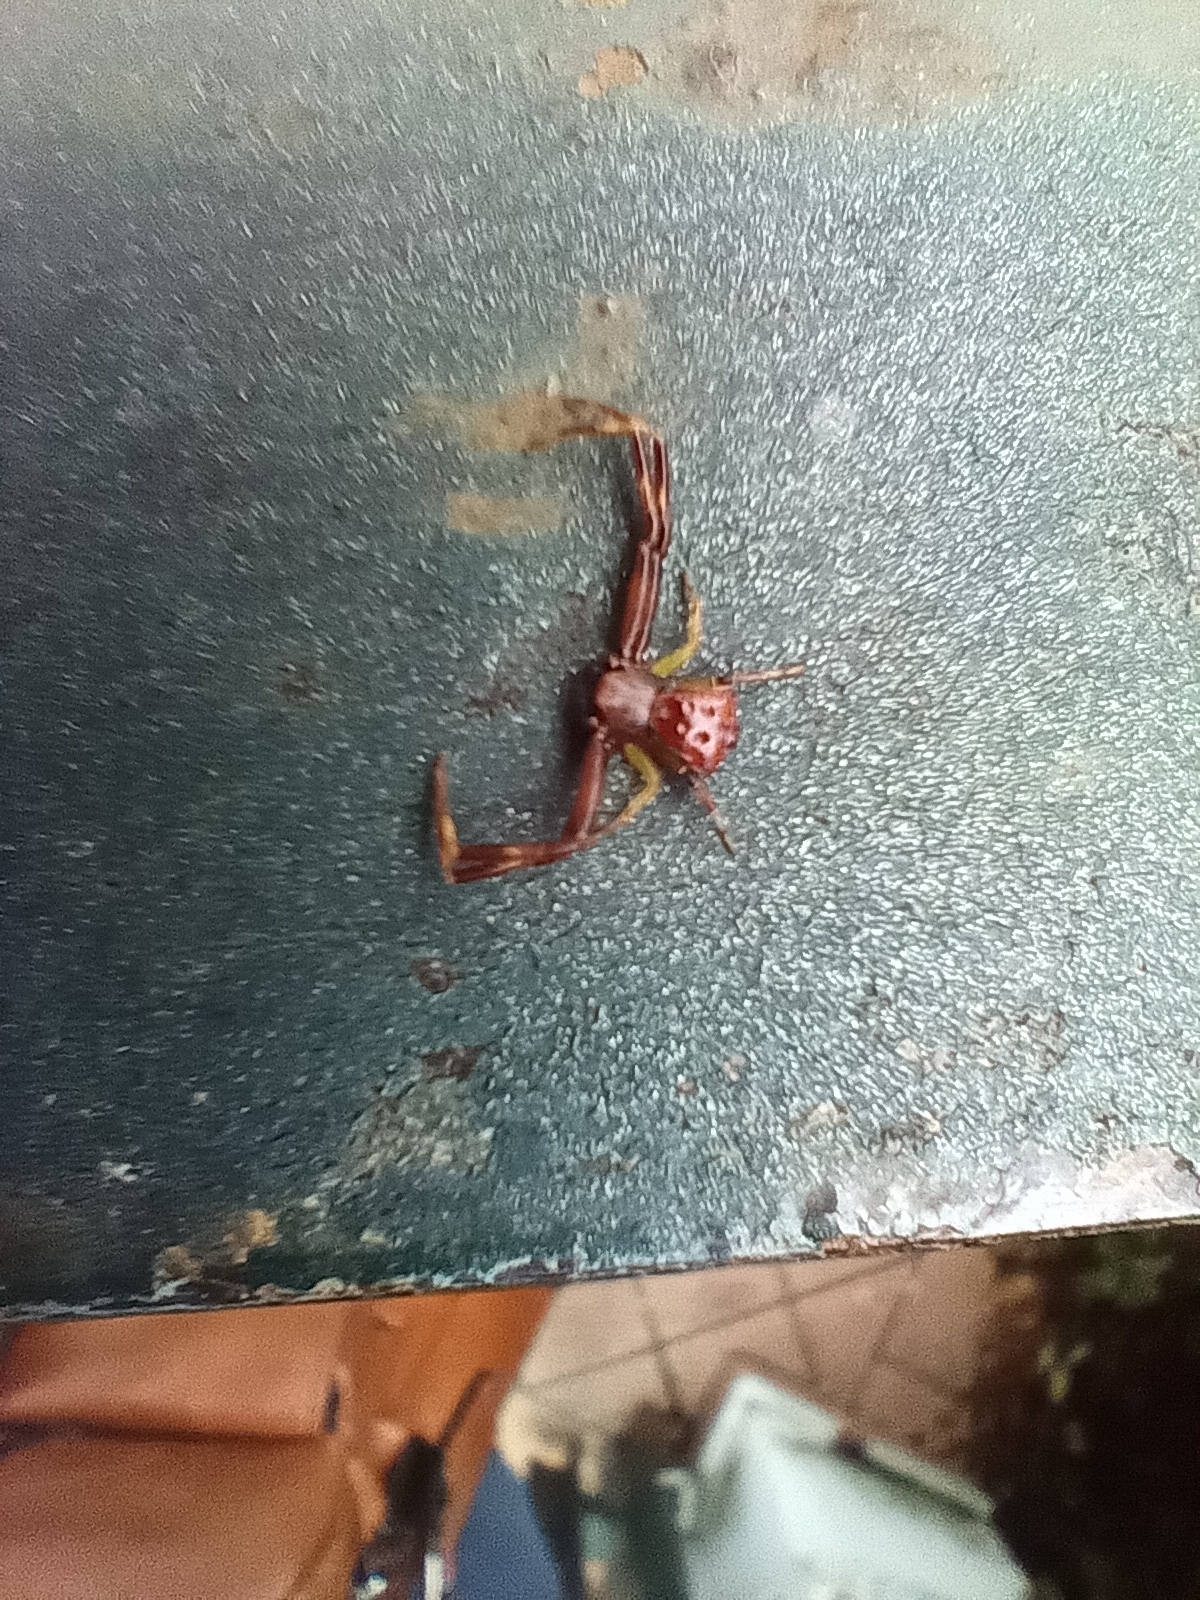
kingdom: Animalia
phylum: Arthropoda
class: Arachnida
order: Araneae
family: Thomisidae
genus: Pistius
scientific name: Pistius truncatus
